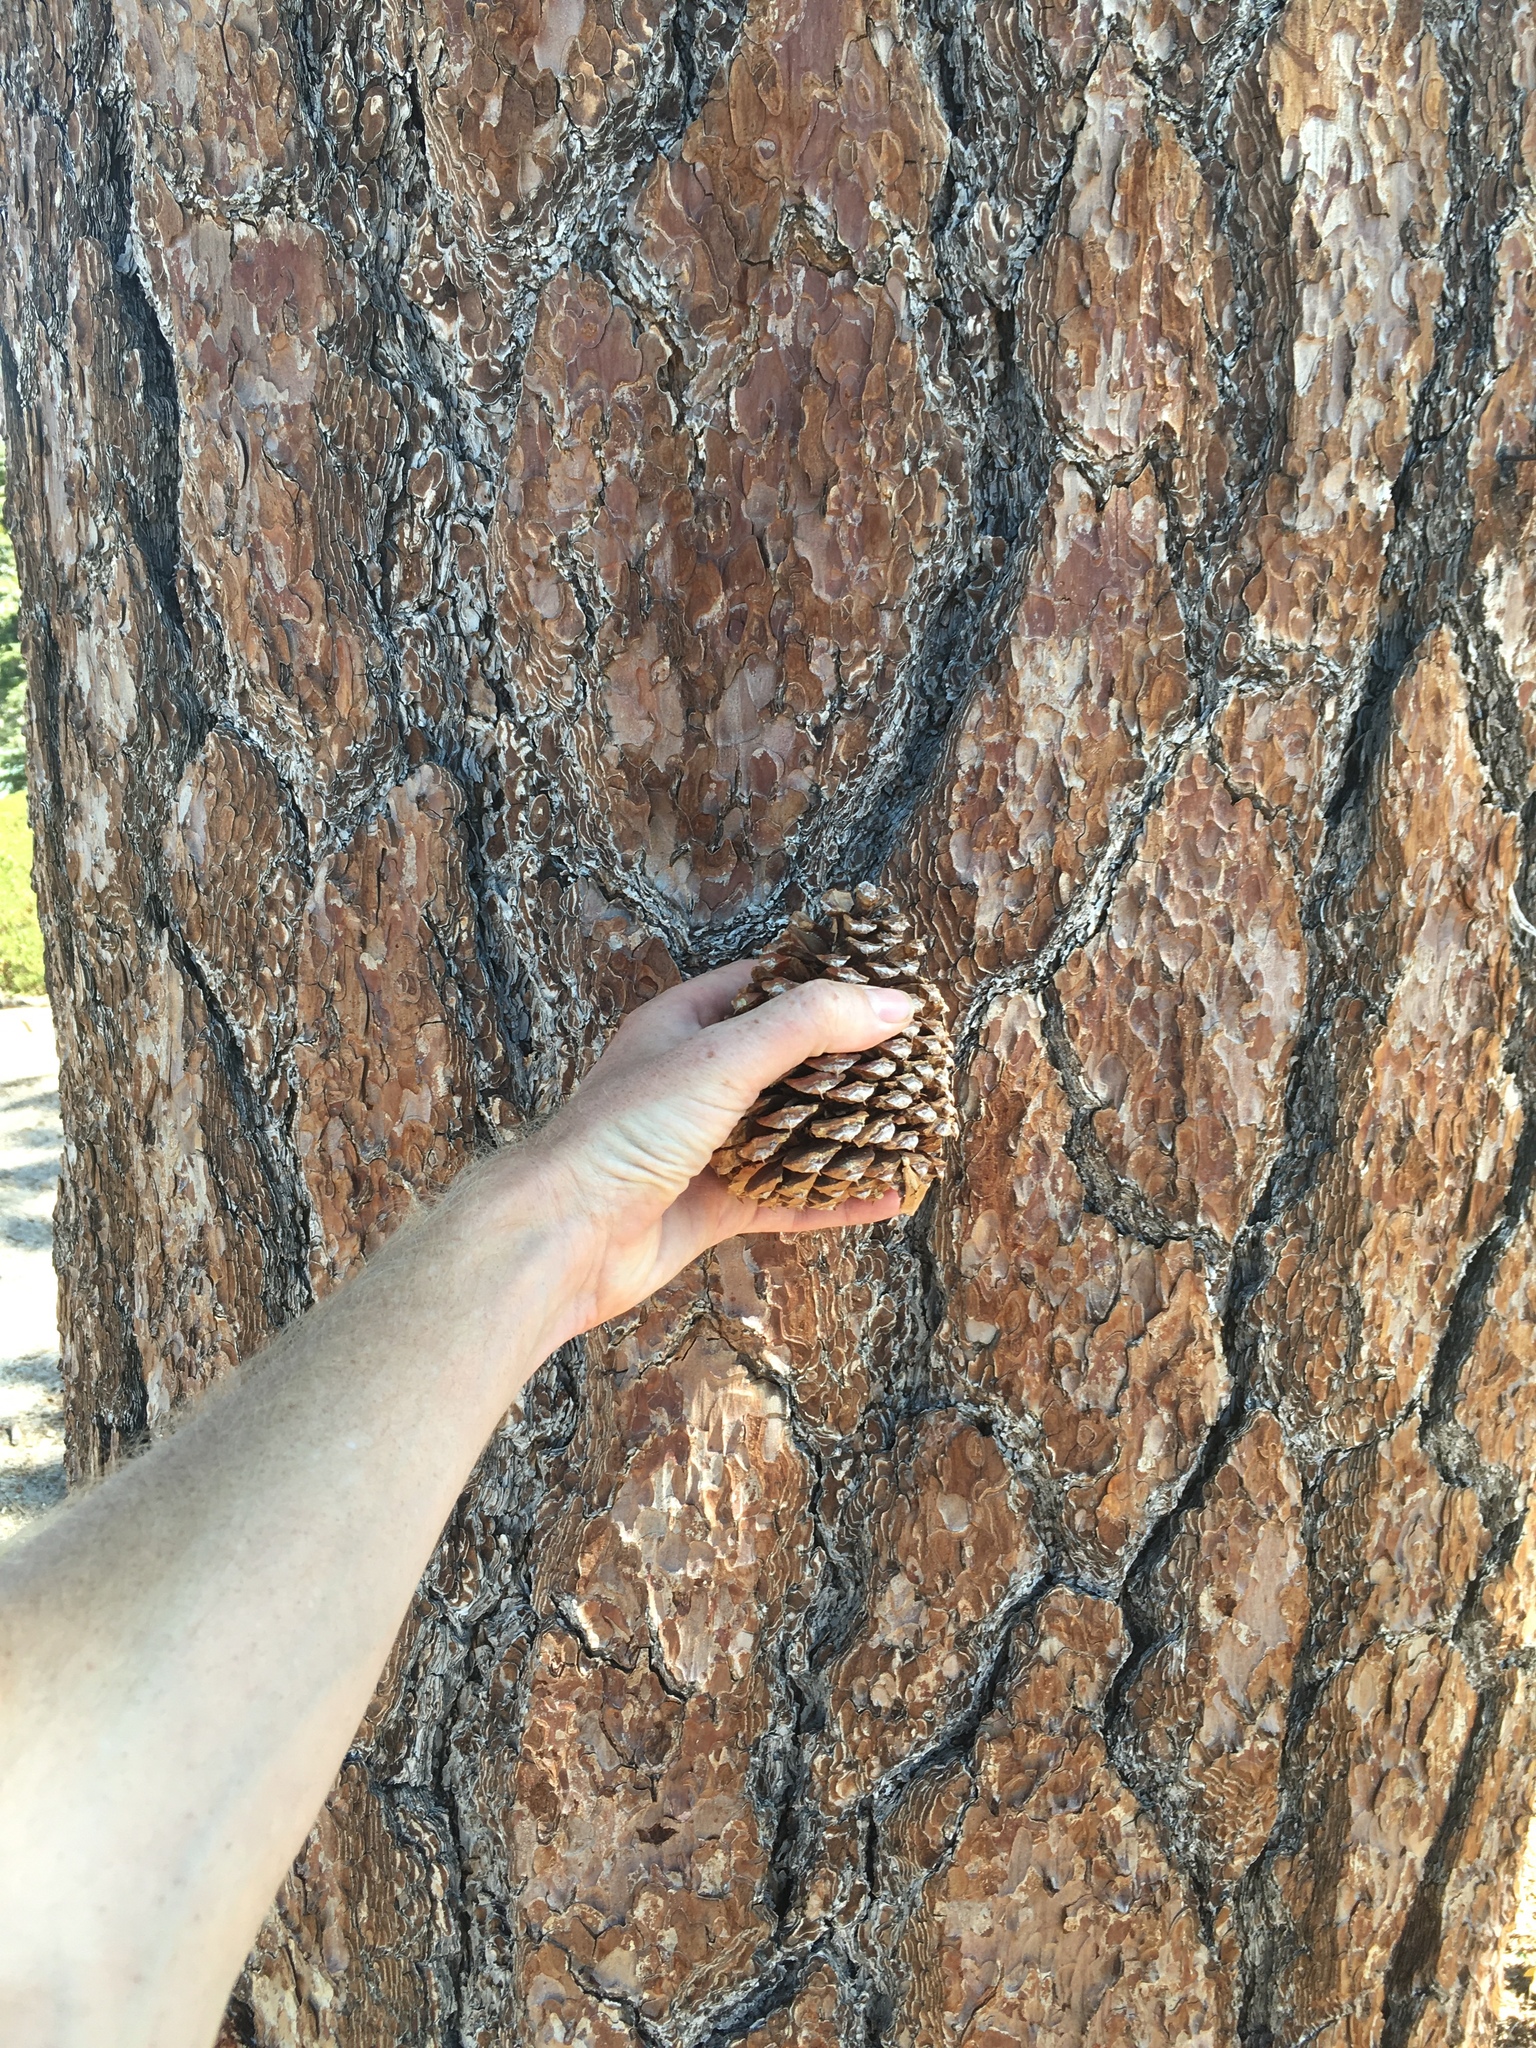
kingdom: Plantae
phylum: Tracheophyta
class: Pinopsida
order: Pinales
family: Pinaceae
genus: Pinus
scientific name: Pinus ponderosa
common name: Western yellow-pine
